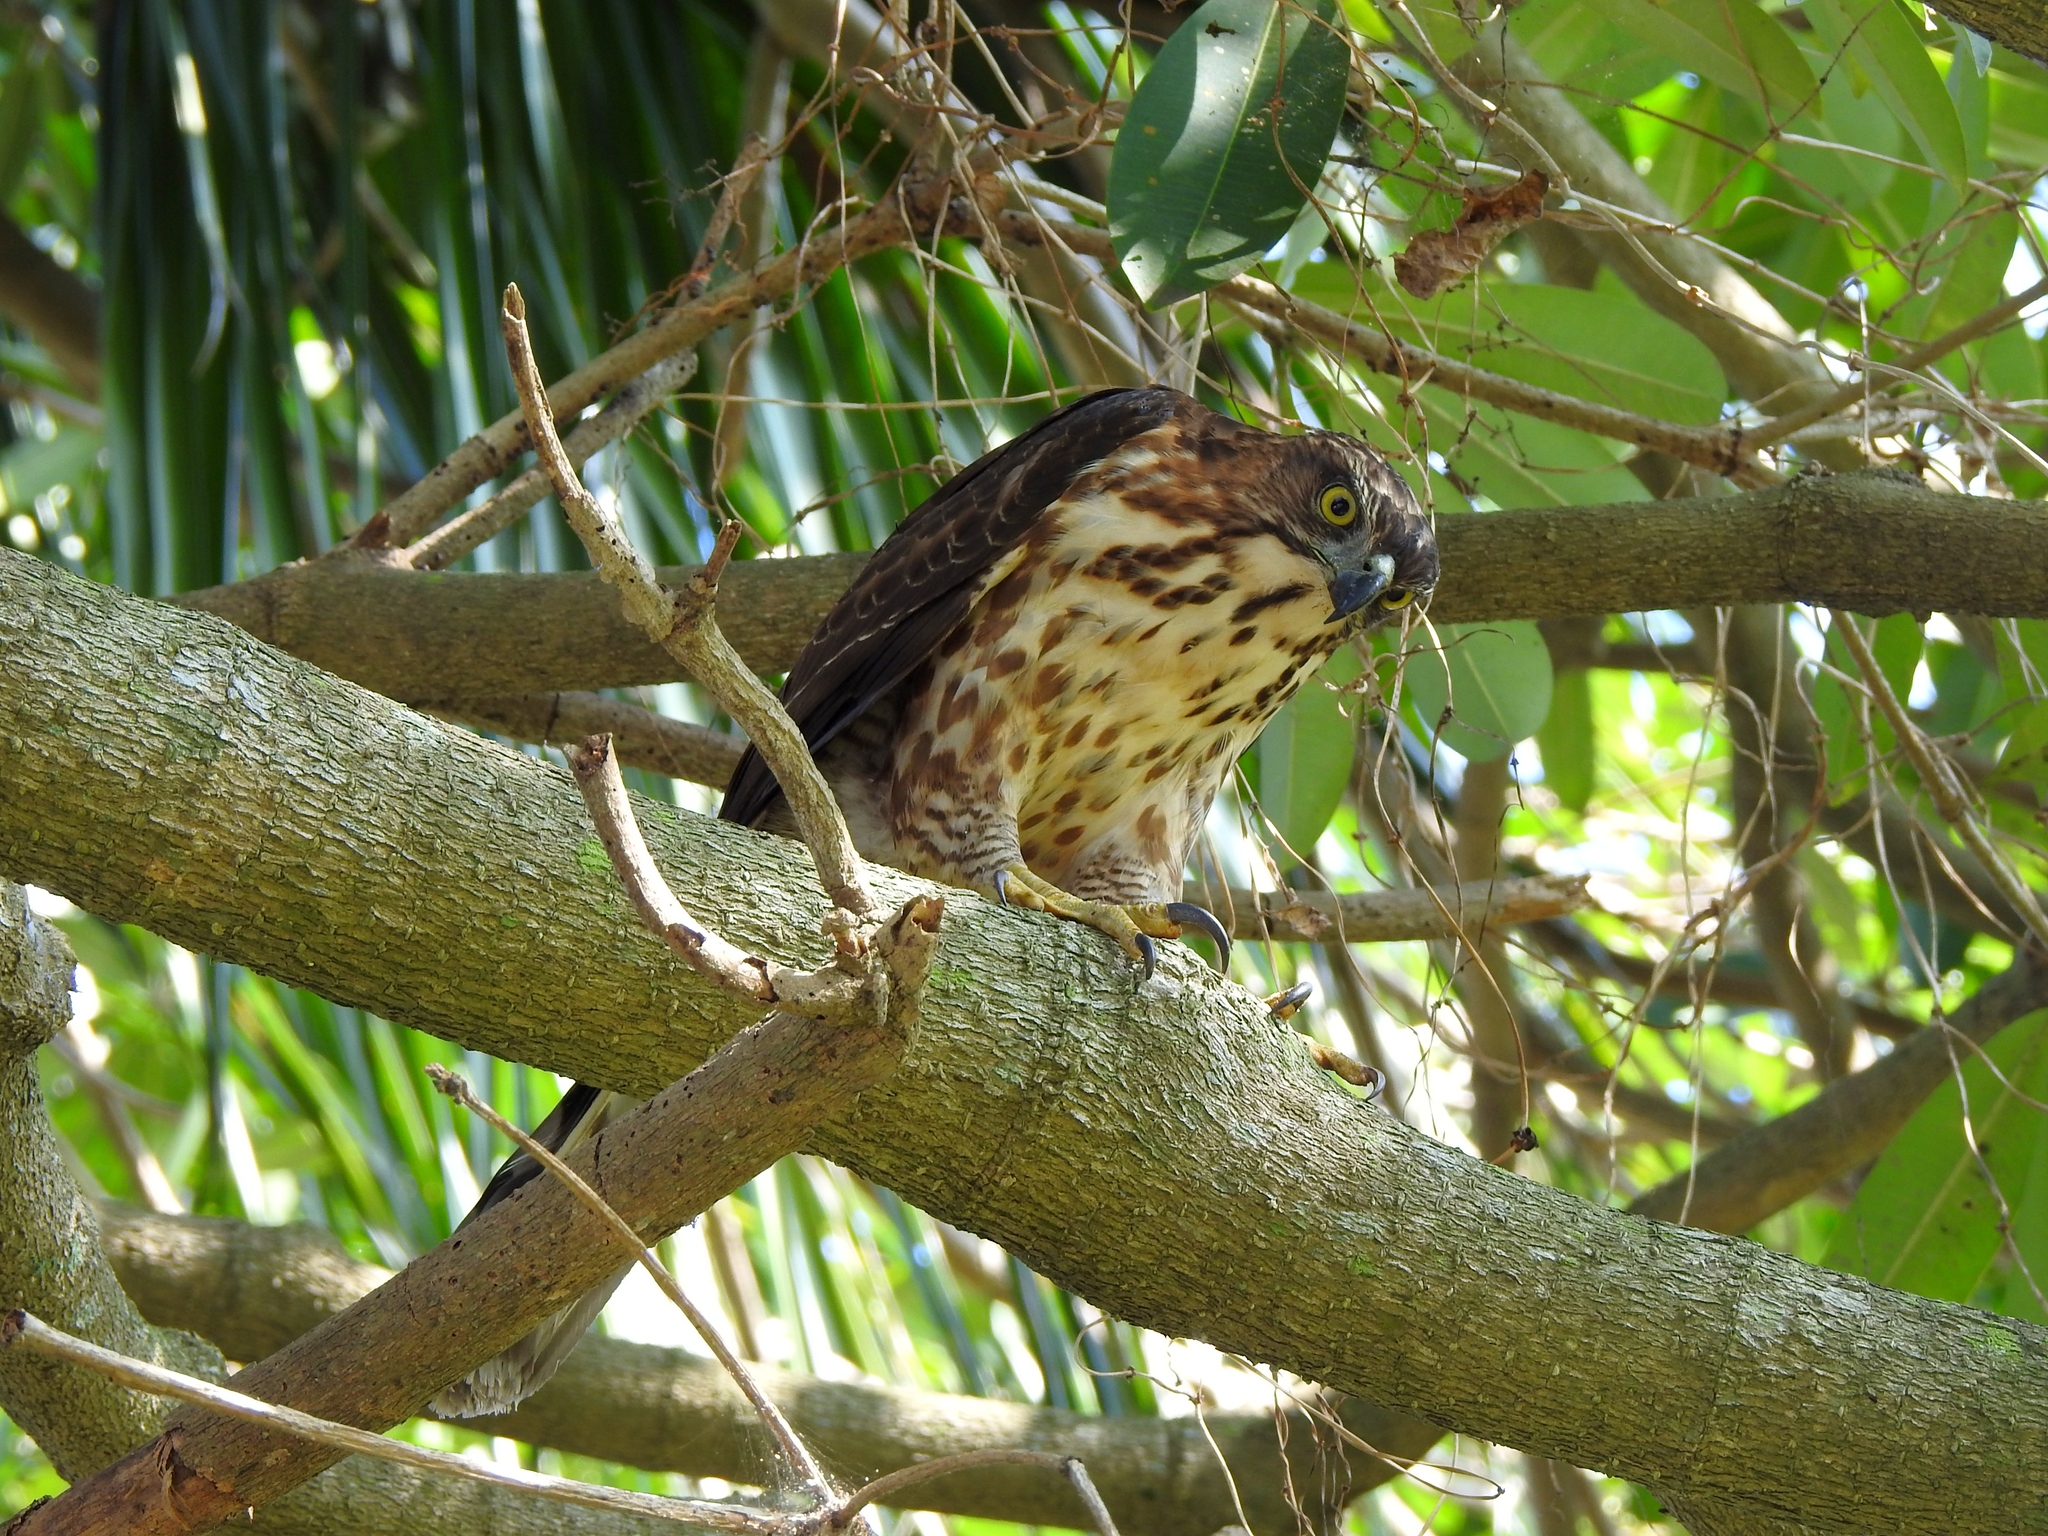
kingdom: Animalia
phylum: Chordata
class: Aves
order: Accipitriformes
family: Accipitridae
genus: Accipiter
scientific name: Accipiter trivirgatus
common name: Crested goshawk
